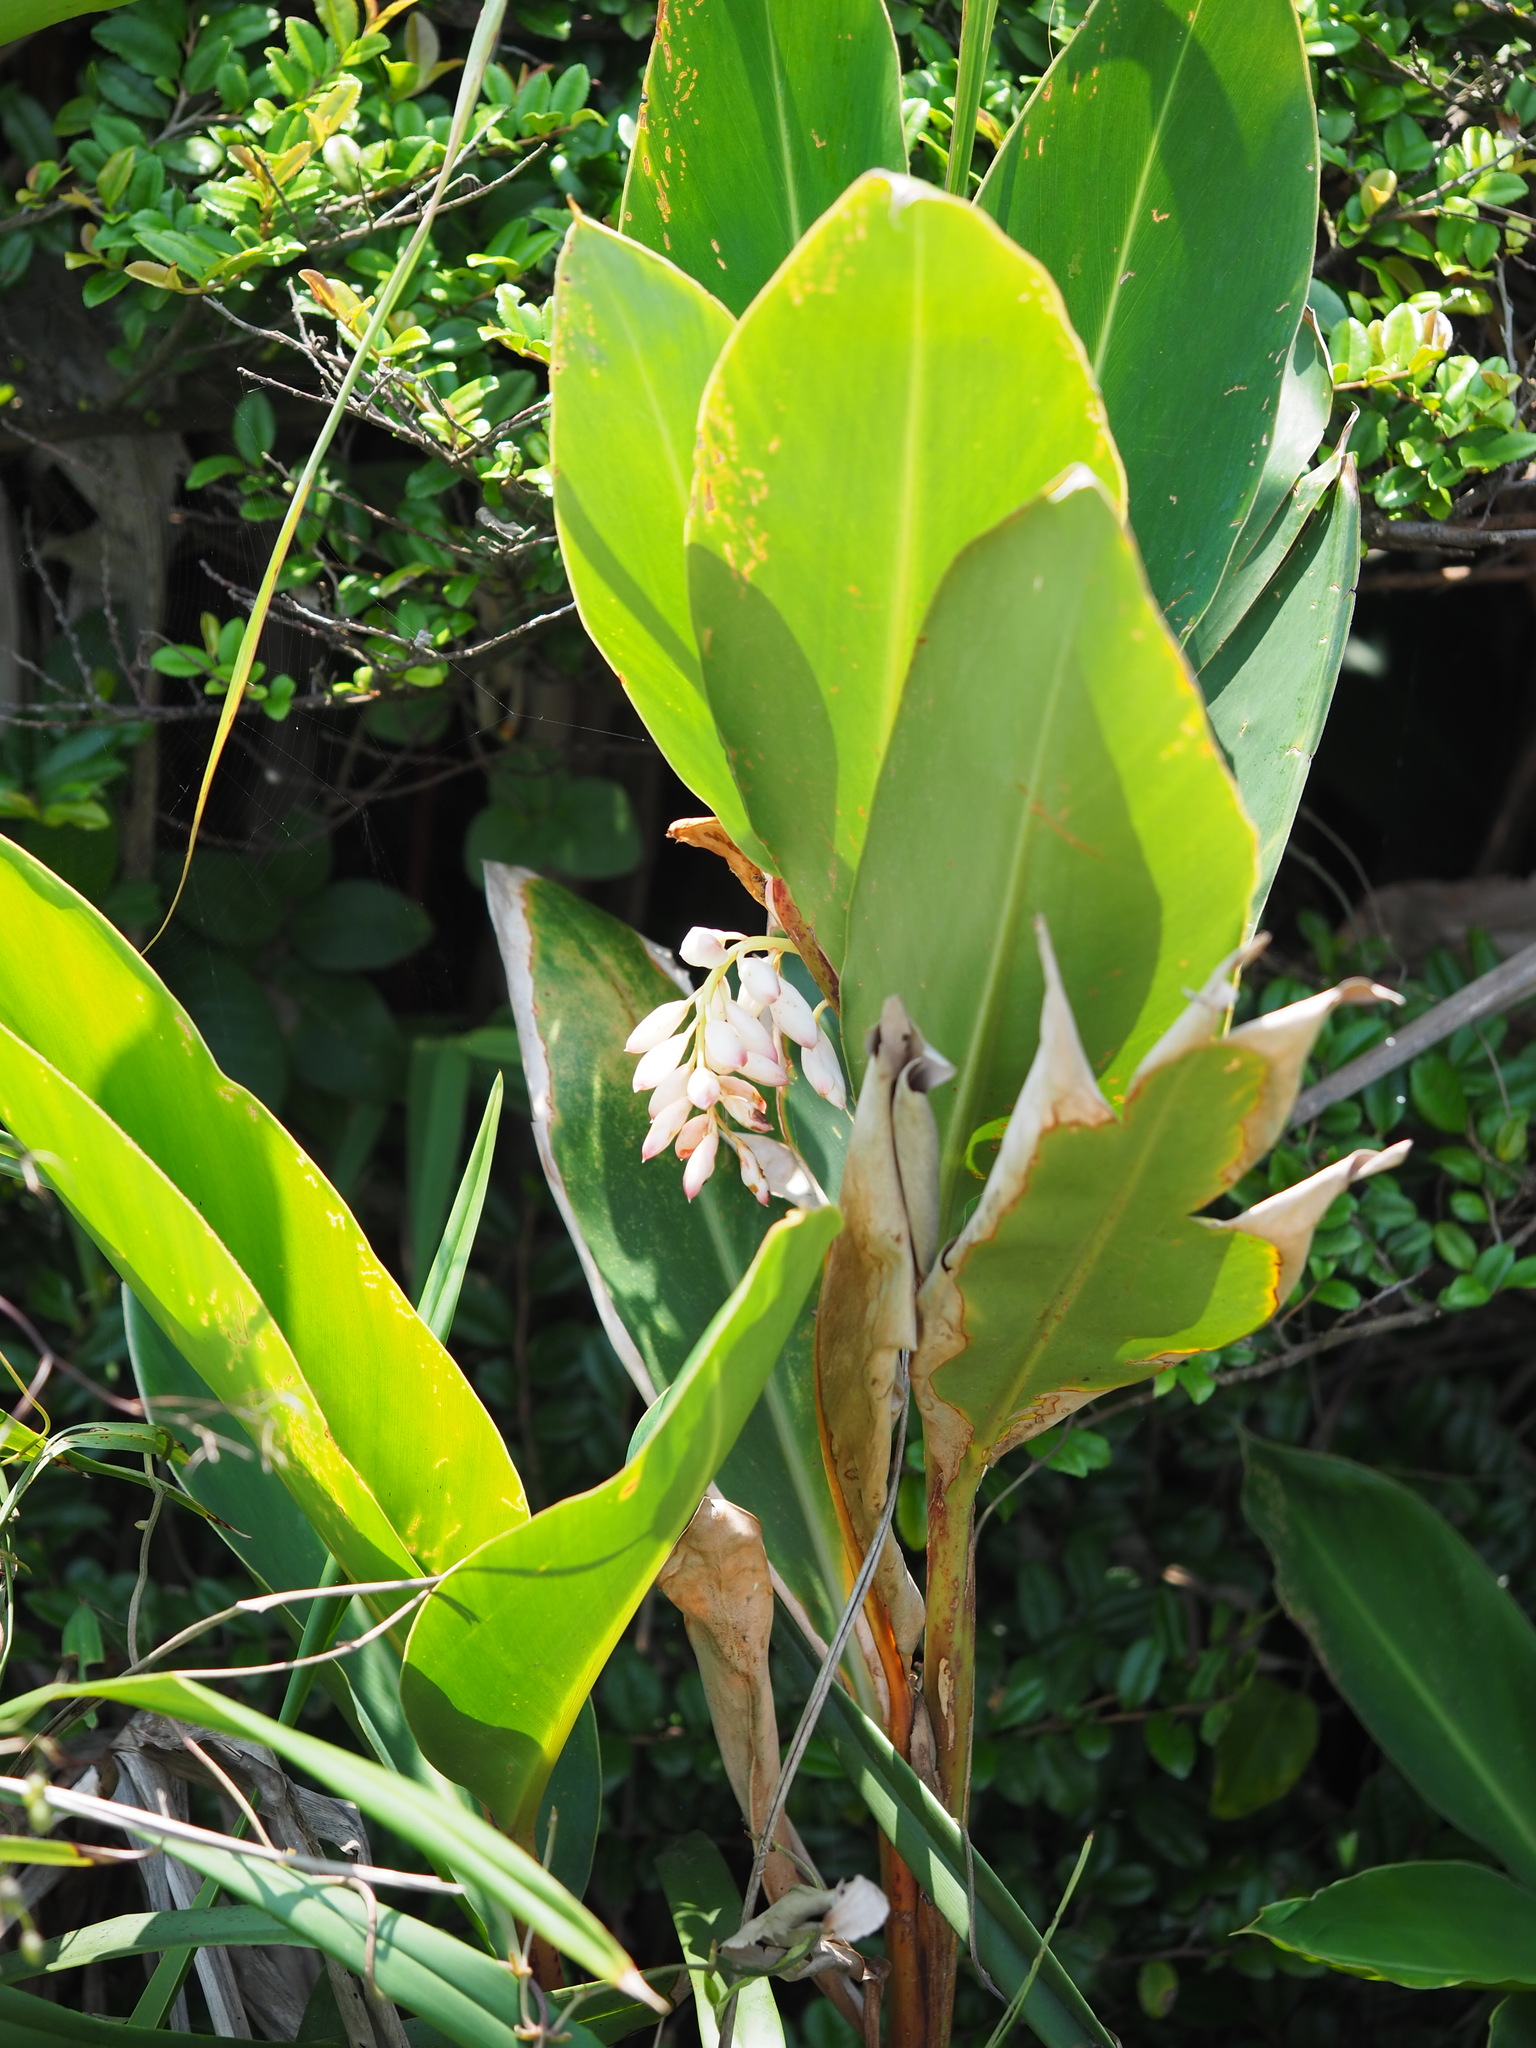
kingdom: Plantae
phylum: Tracheophyta
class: Liliopsida
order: Zingiberales
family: Zingiberaceae
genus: Alpinia
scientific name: Alpinia zerumbet
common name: Shellplant
